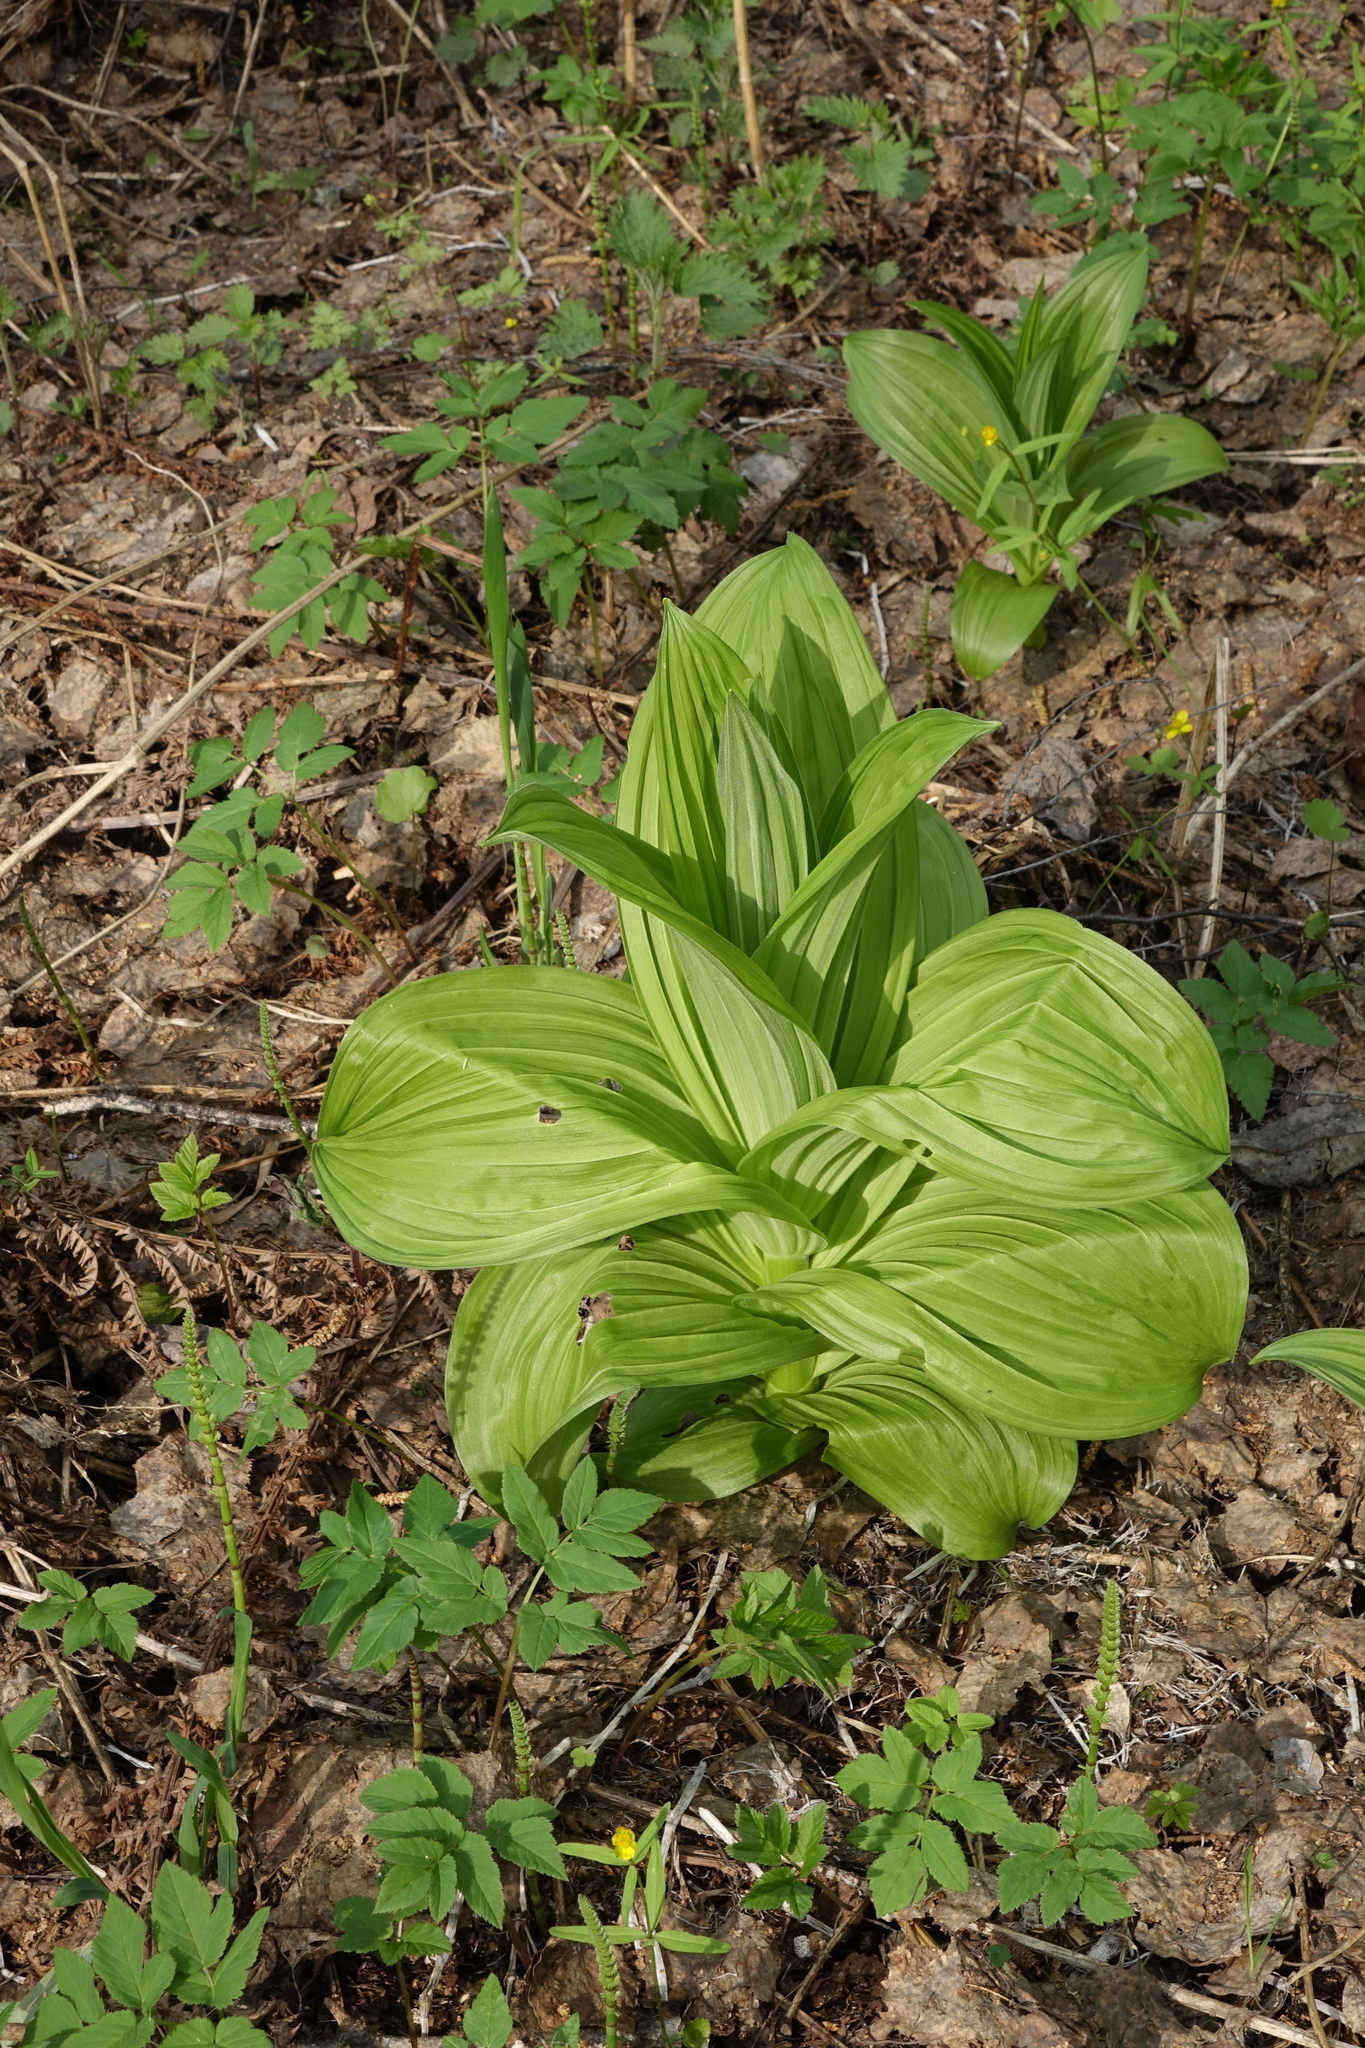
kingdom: Plantae
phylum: Tracheophyta
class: Liliopsida
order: Liliales
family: Melanthiaceae
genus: Veratrum
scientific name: Veratrum lobelianum
